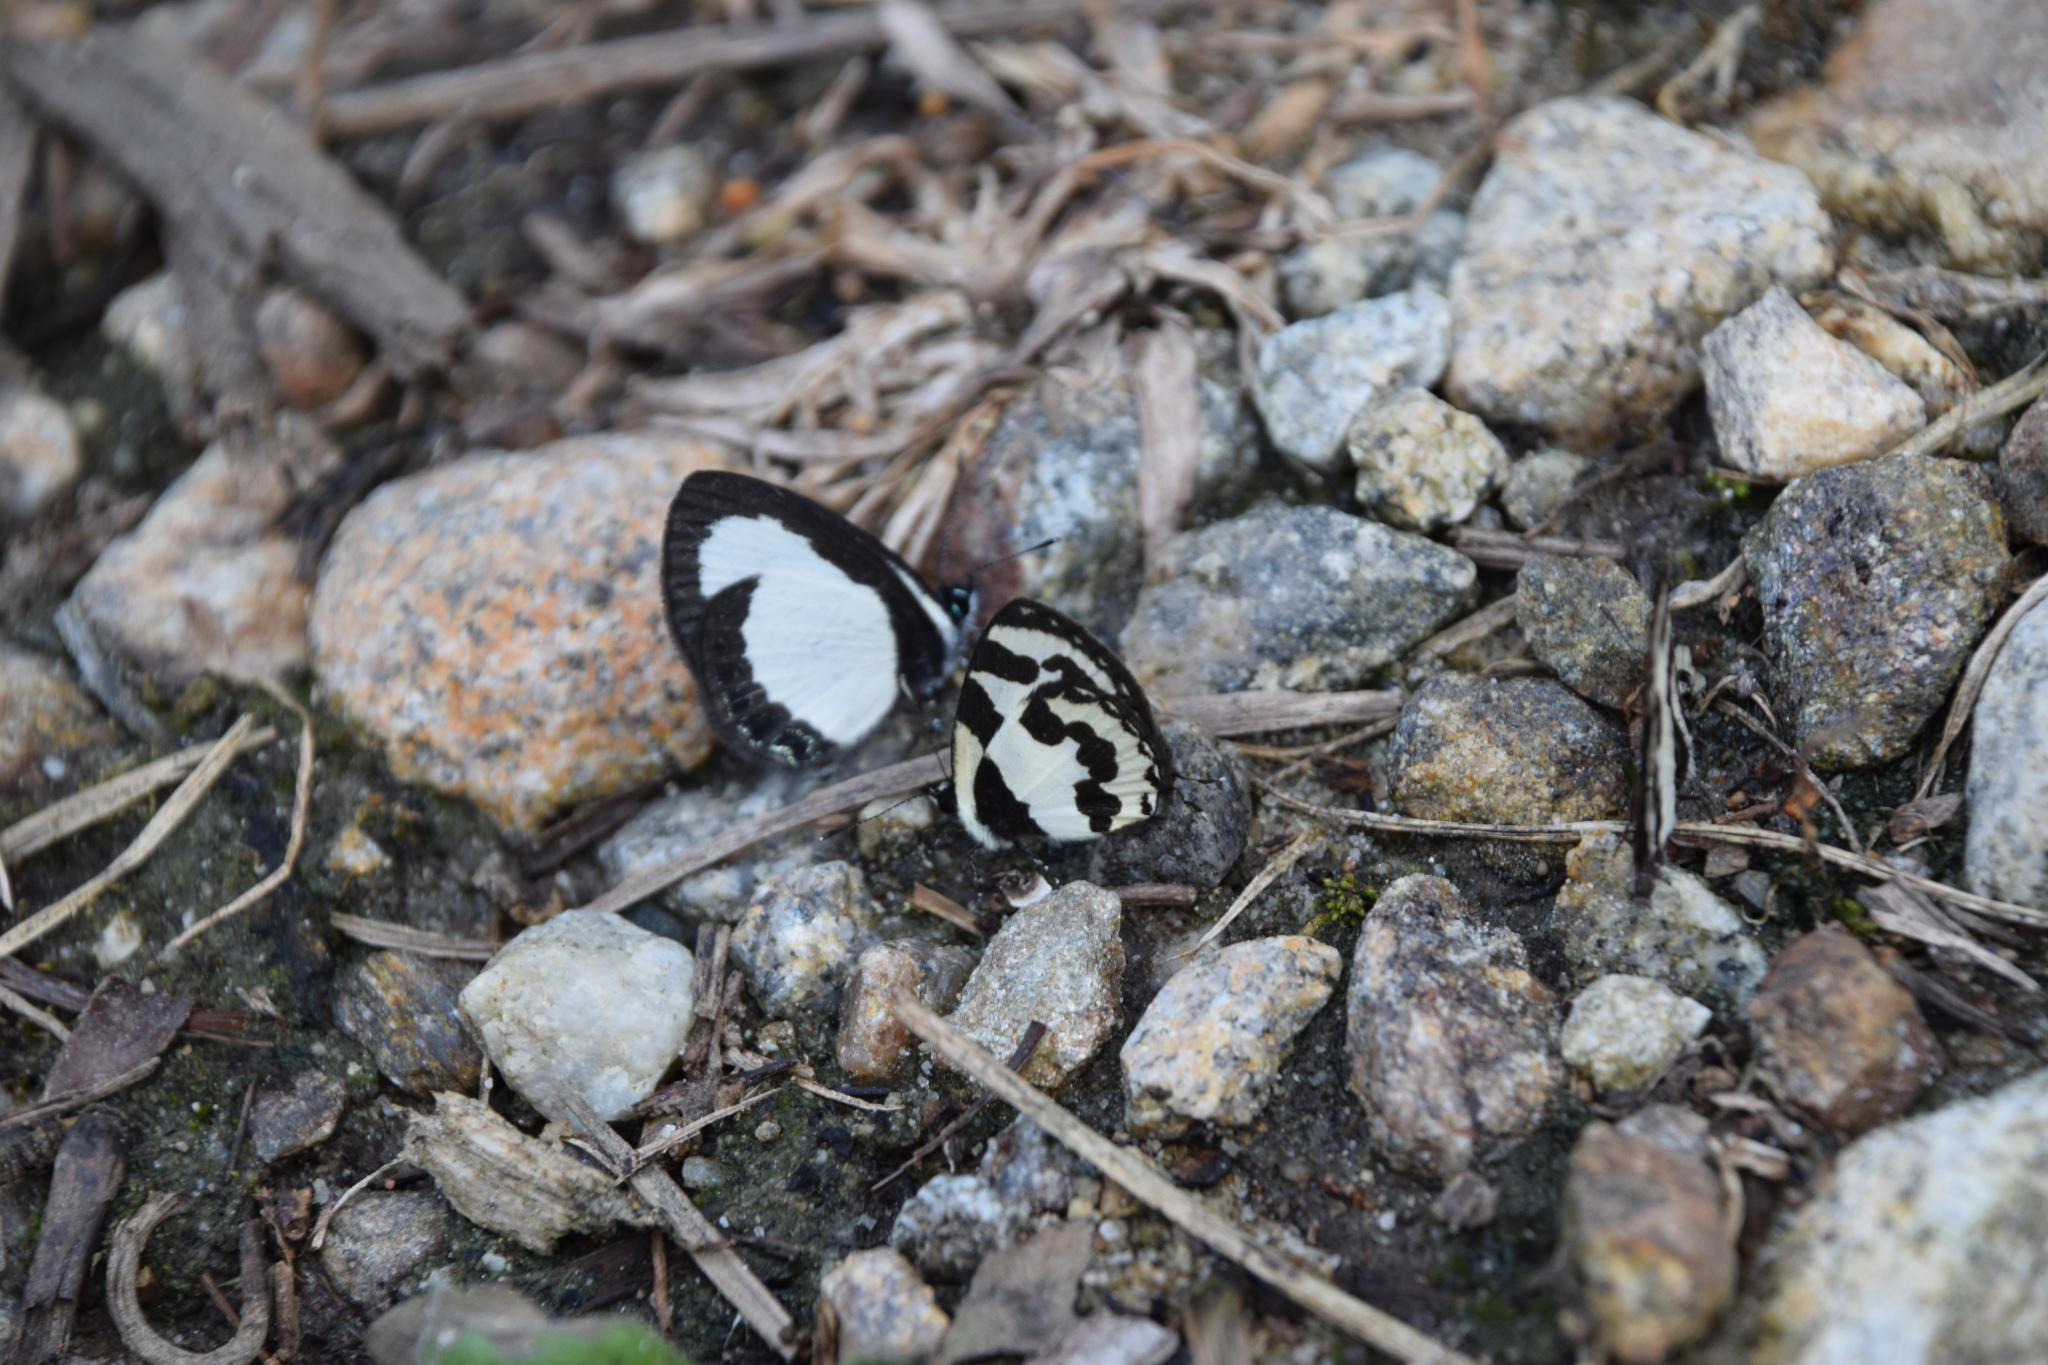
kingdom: Animalia
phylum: Arthropoda
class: Insecta
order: Lepidoptera
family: Lycaenidae
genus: Caleta
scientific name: Caleta
